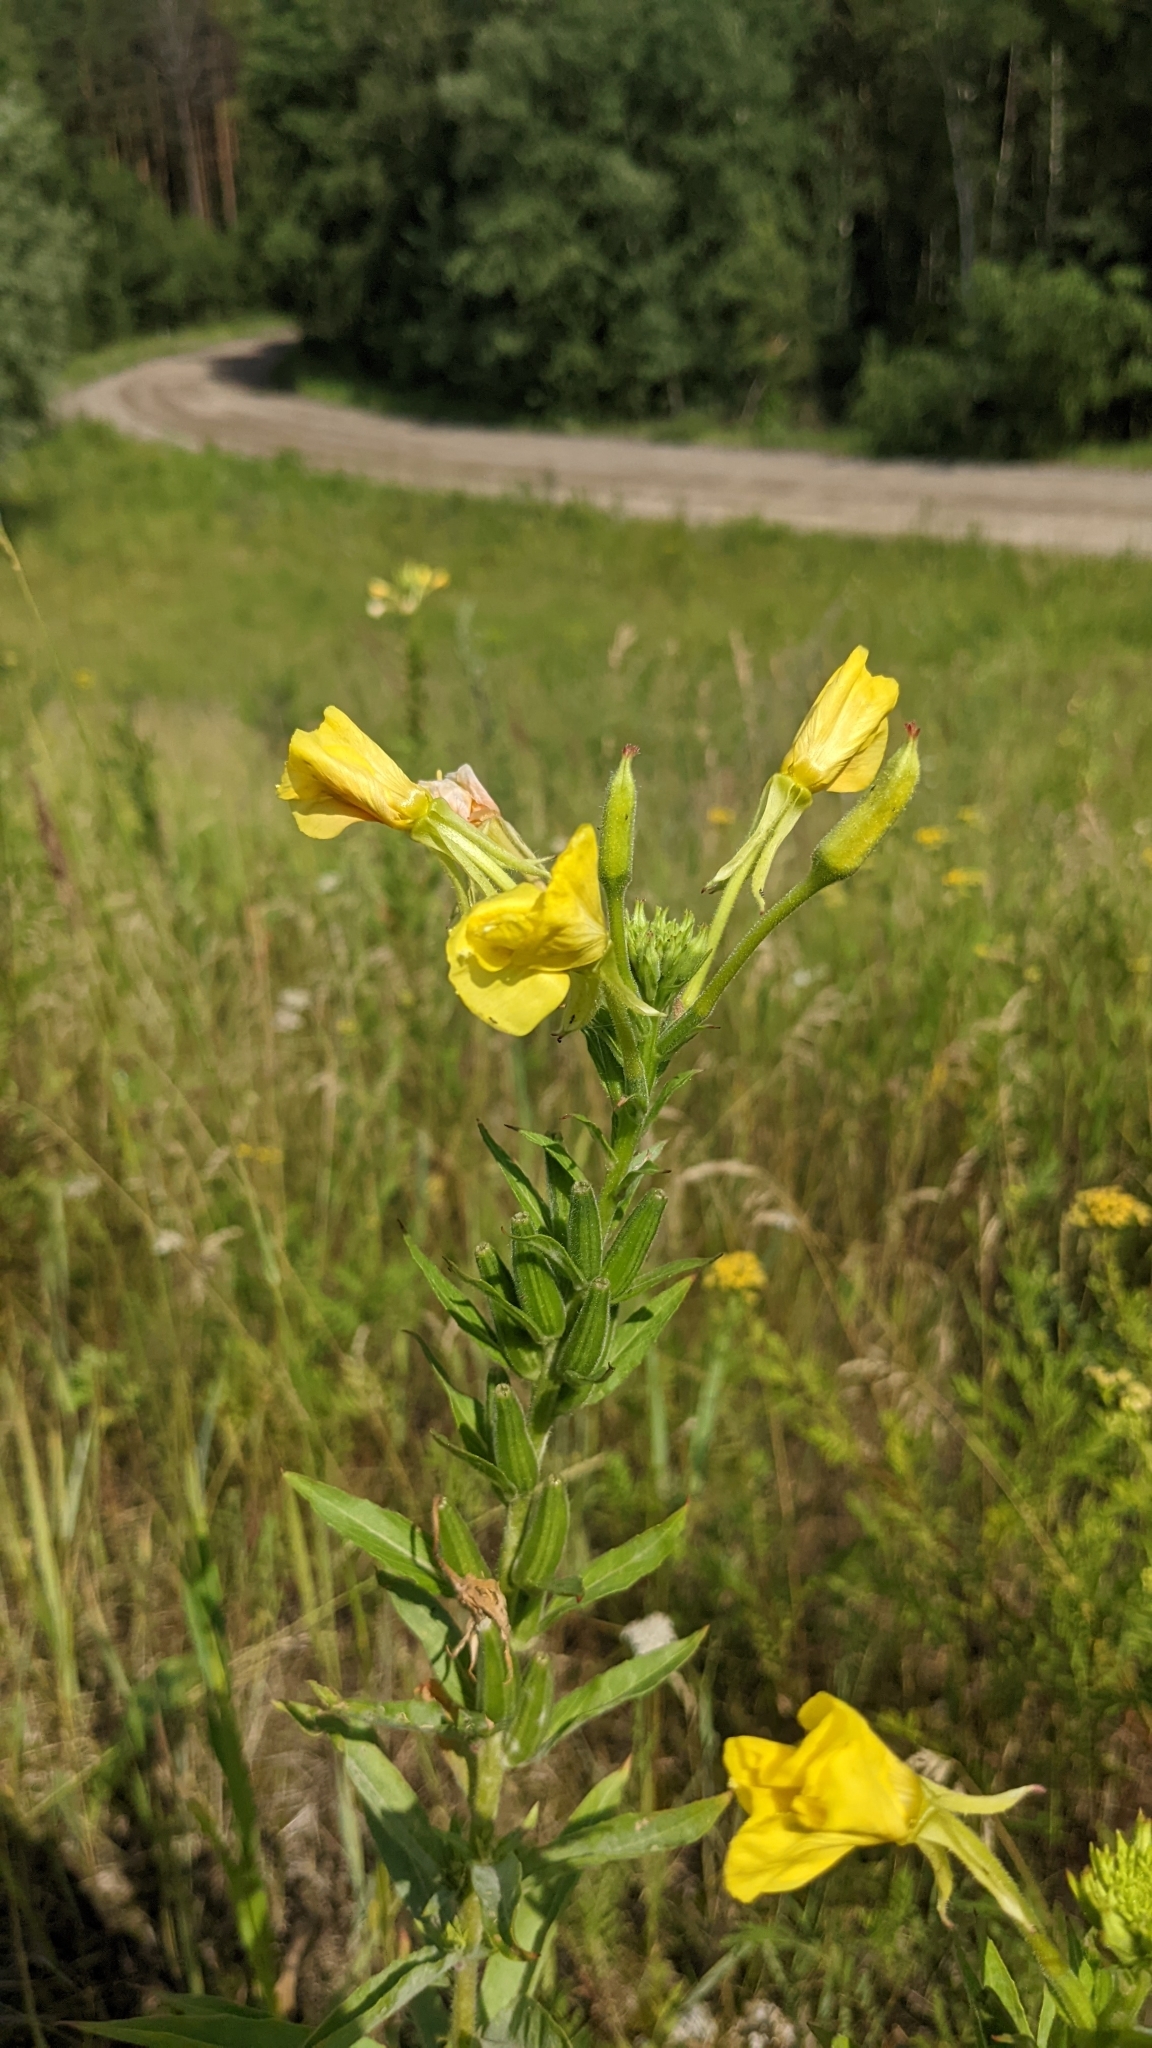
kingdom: Plantae
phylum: Tracheophyta
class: Magnoliopsida
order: Myrtales
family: Onagraceae
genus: Oenothera
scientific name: Oenothera biennis
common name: Common evening-primrose
